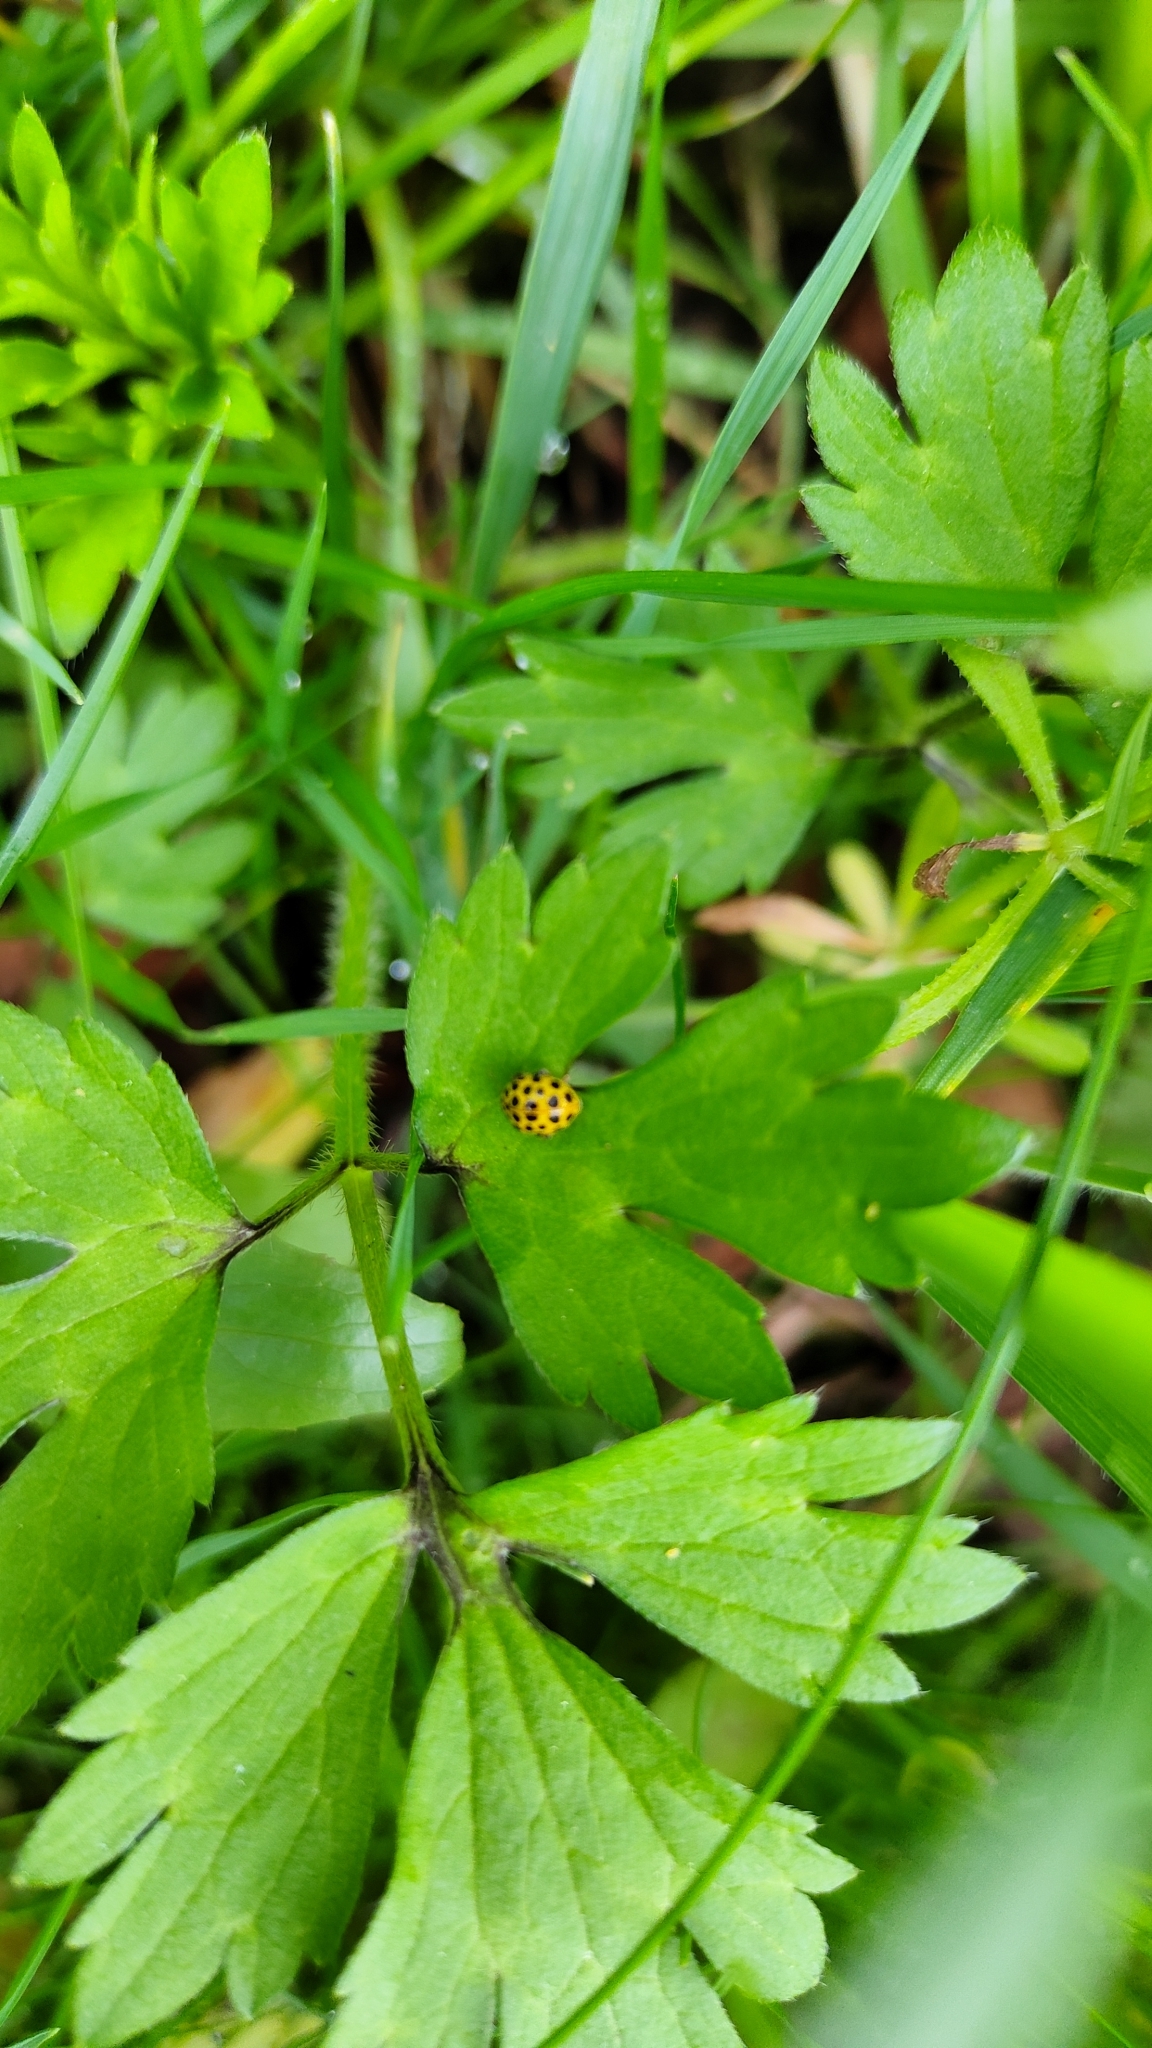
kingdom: Animalia
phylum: Arthropoda
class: Insecta
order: Coleoptera
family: Coccinellidae
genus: Psyllobora
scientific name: Psyllobora vigintiduopunctata
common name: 22-spot ladybird
